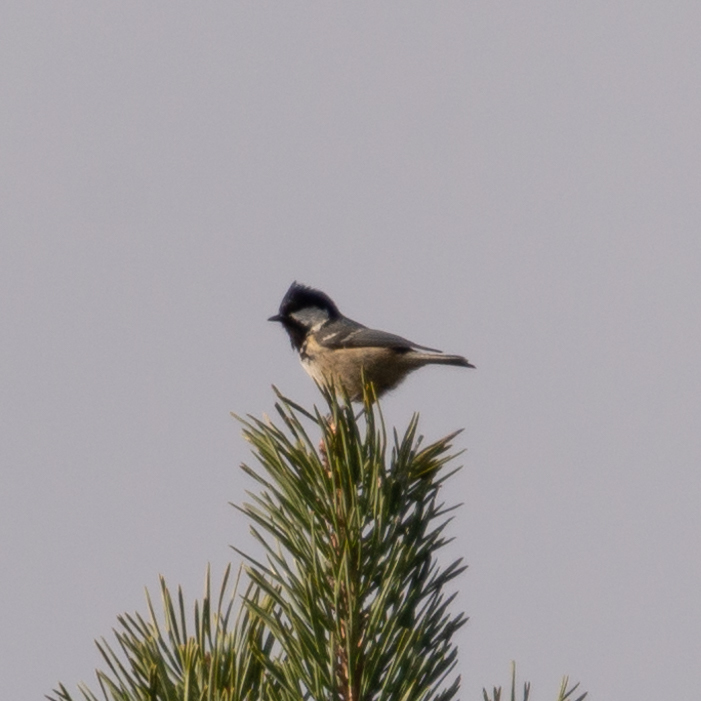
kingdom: Animalia
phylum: Chordata
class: Aves
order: Passeriformes
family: Paridae
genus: Periparus
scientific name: Periparus ater
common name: Coal tit
